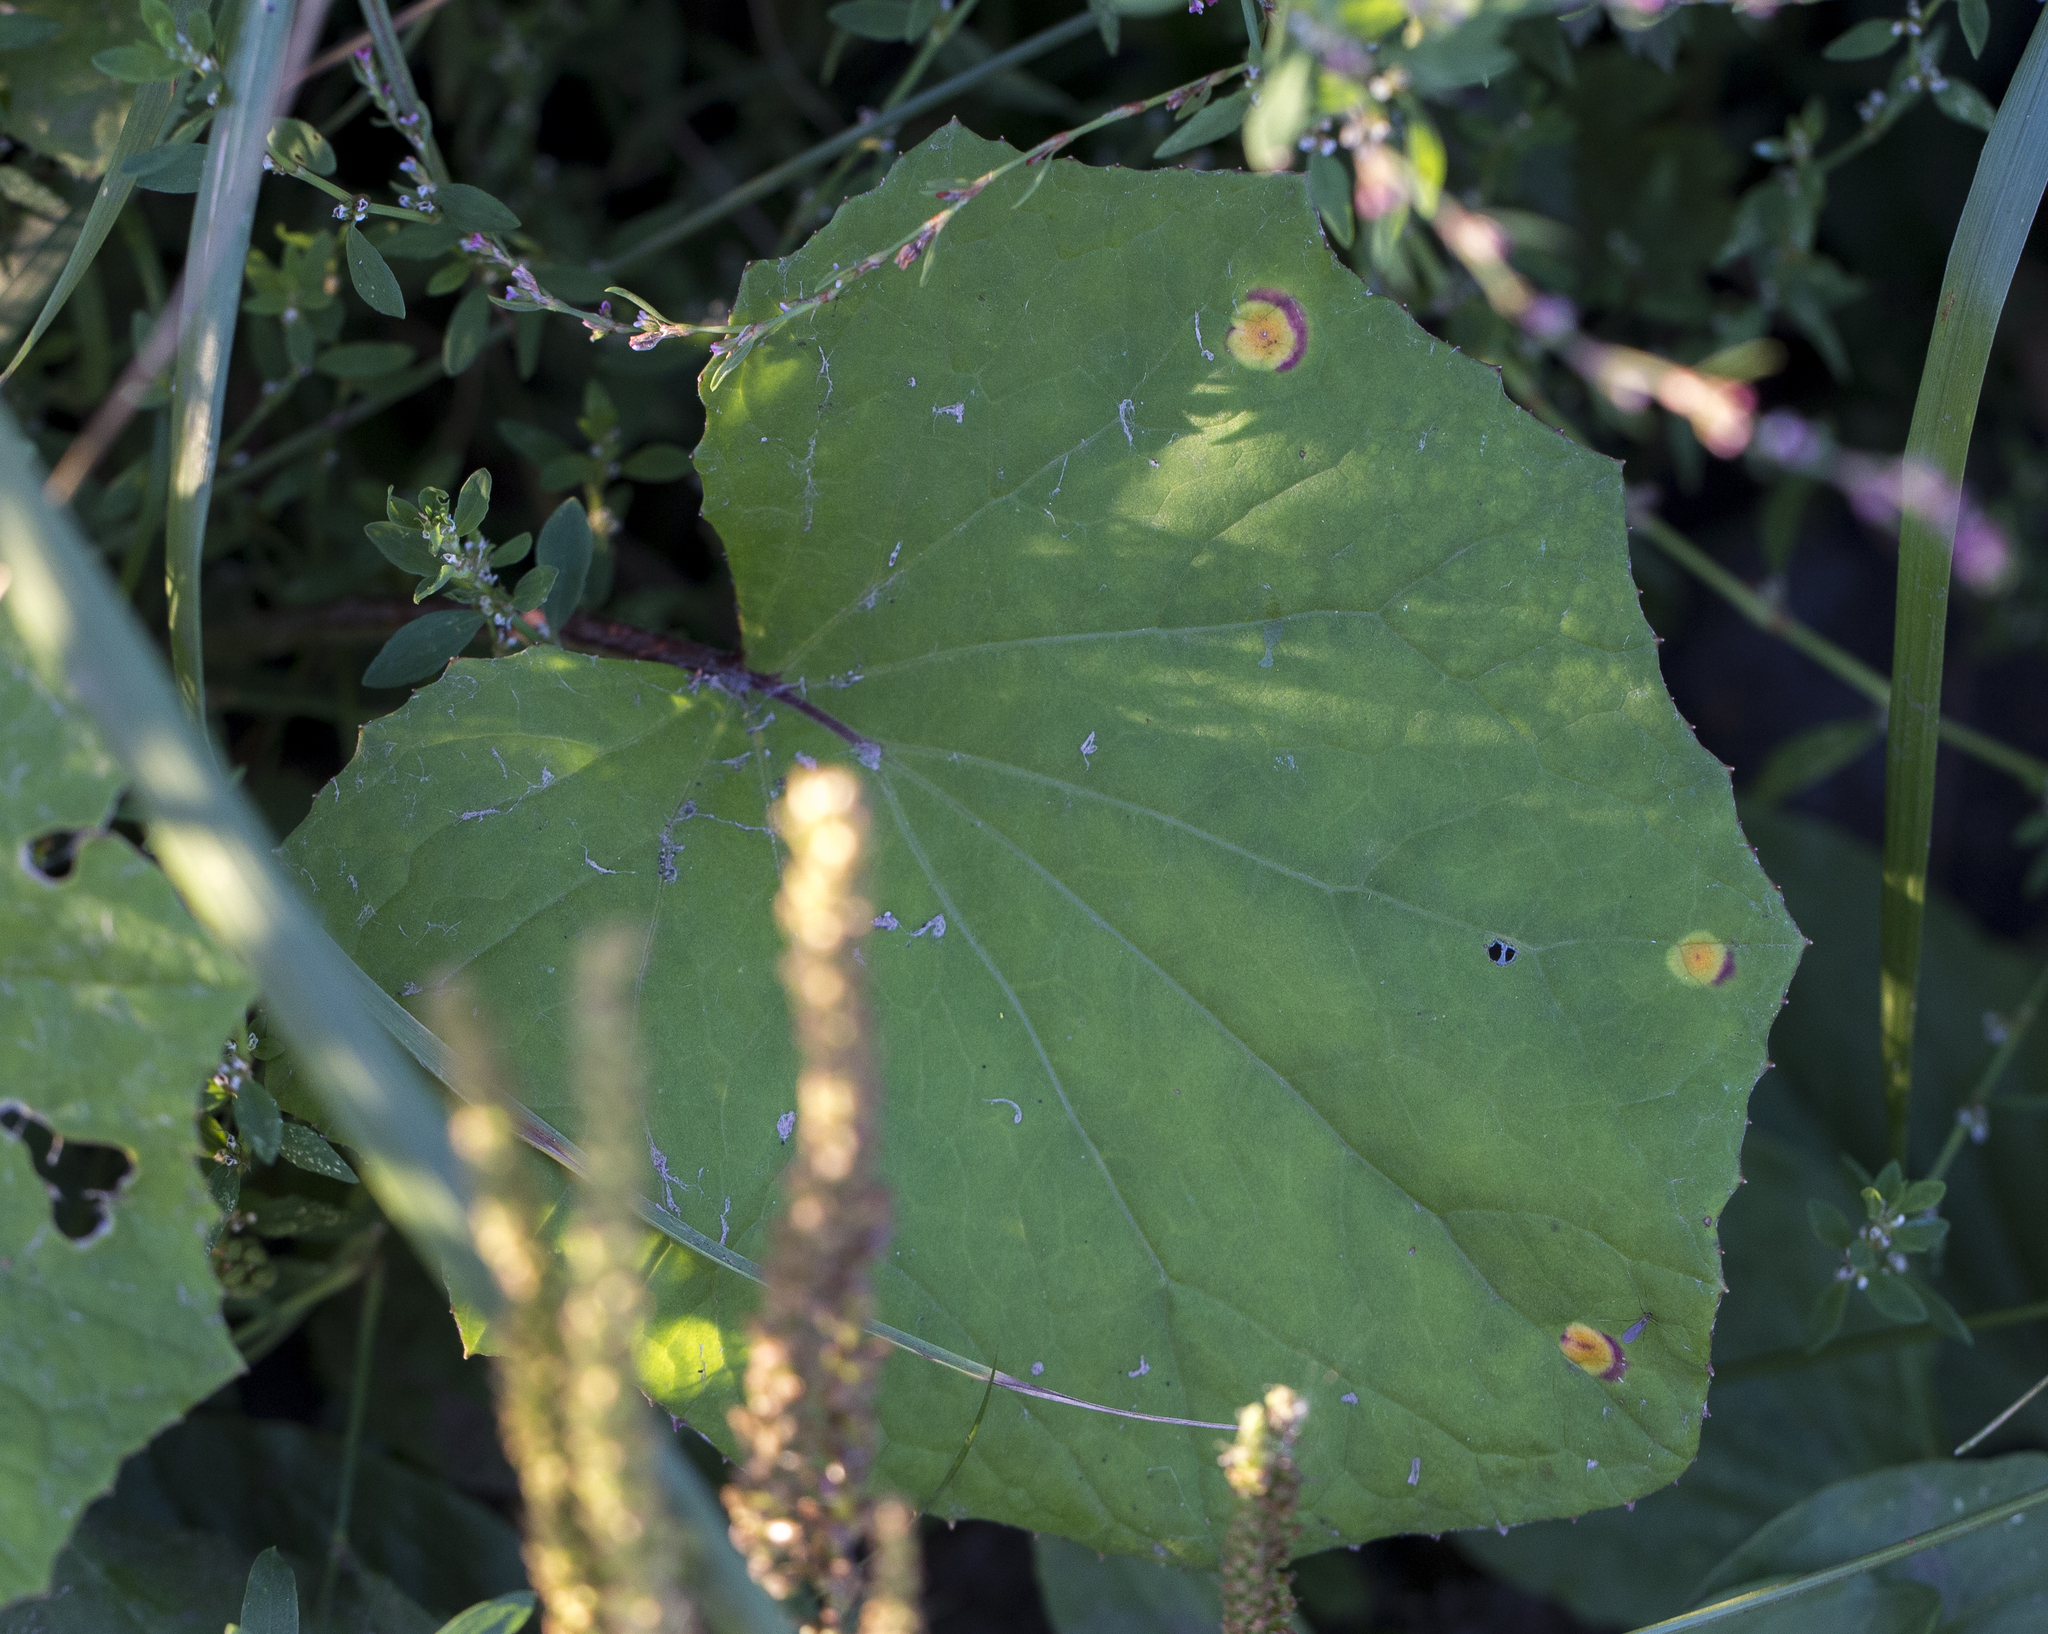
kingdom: Plantae
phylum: Tracheophyta
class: Magnoliopsida
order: Asterales
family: Asteraceae
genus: Tussilago
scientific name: Tussilago farfara
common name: Coltsfoot
